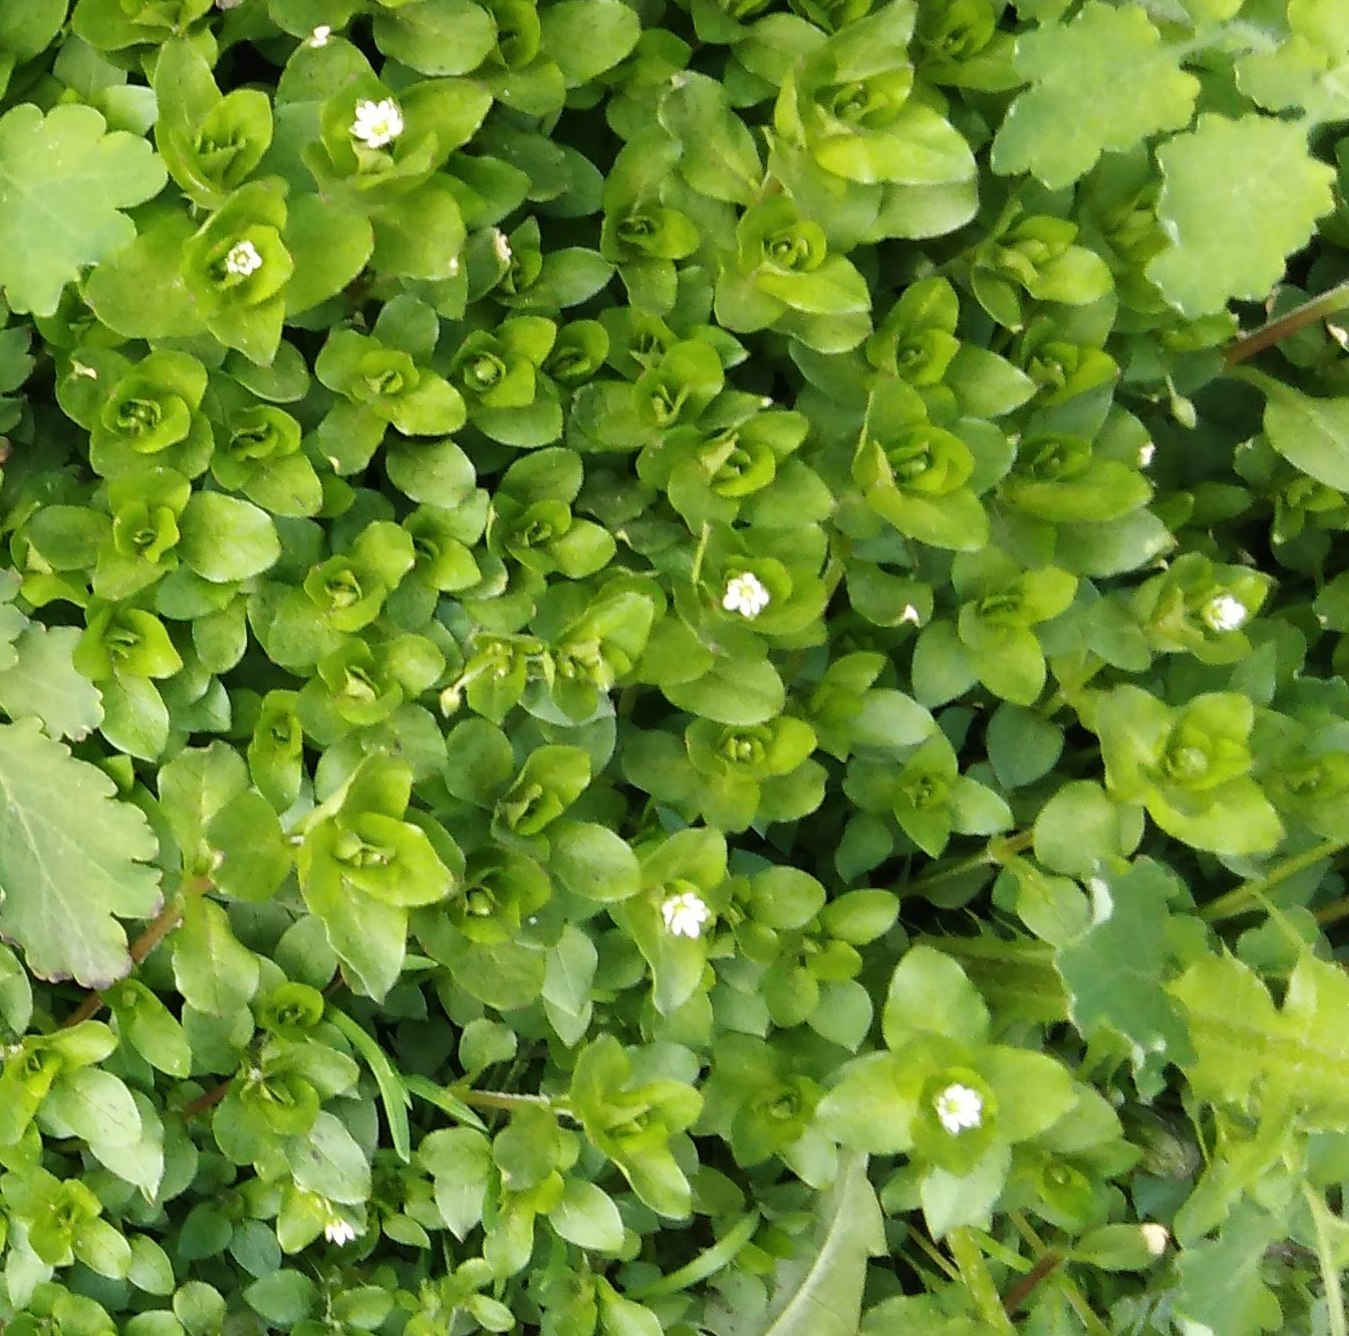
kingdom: Plantae
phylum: Tracheophyta
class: Magnoliopsida
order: Caryophyllales
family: Caryophyllaceae
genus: Stellaria
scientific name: Stellaria media
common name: Common chickweed
